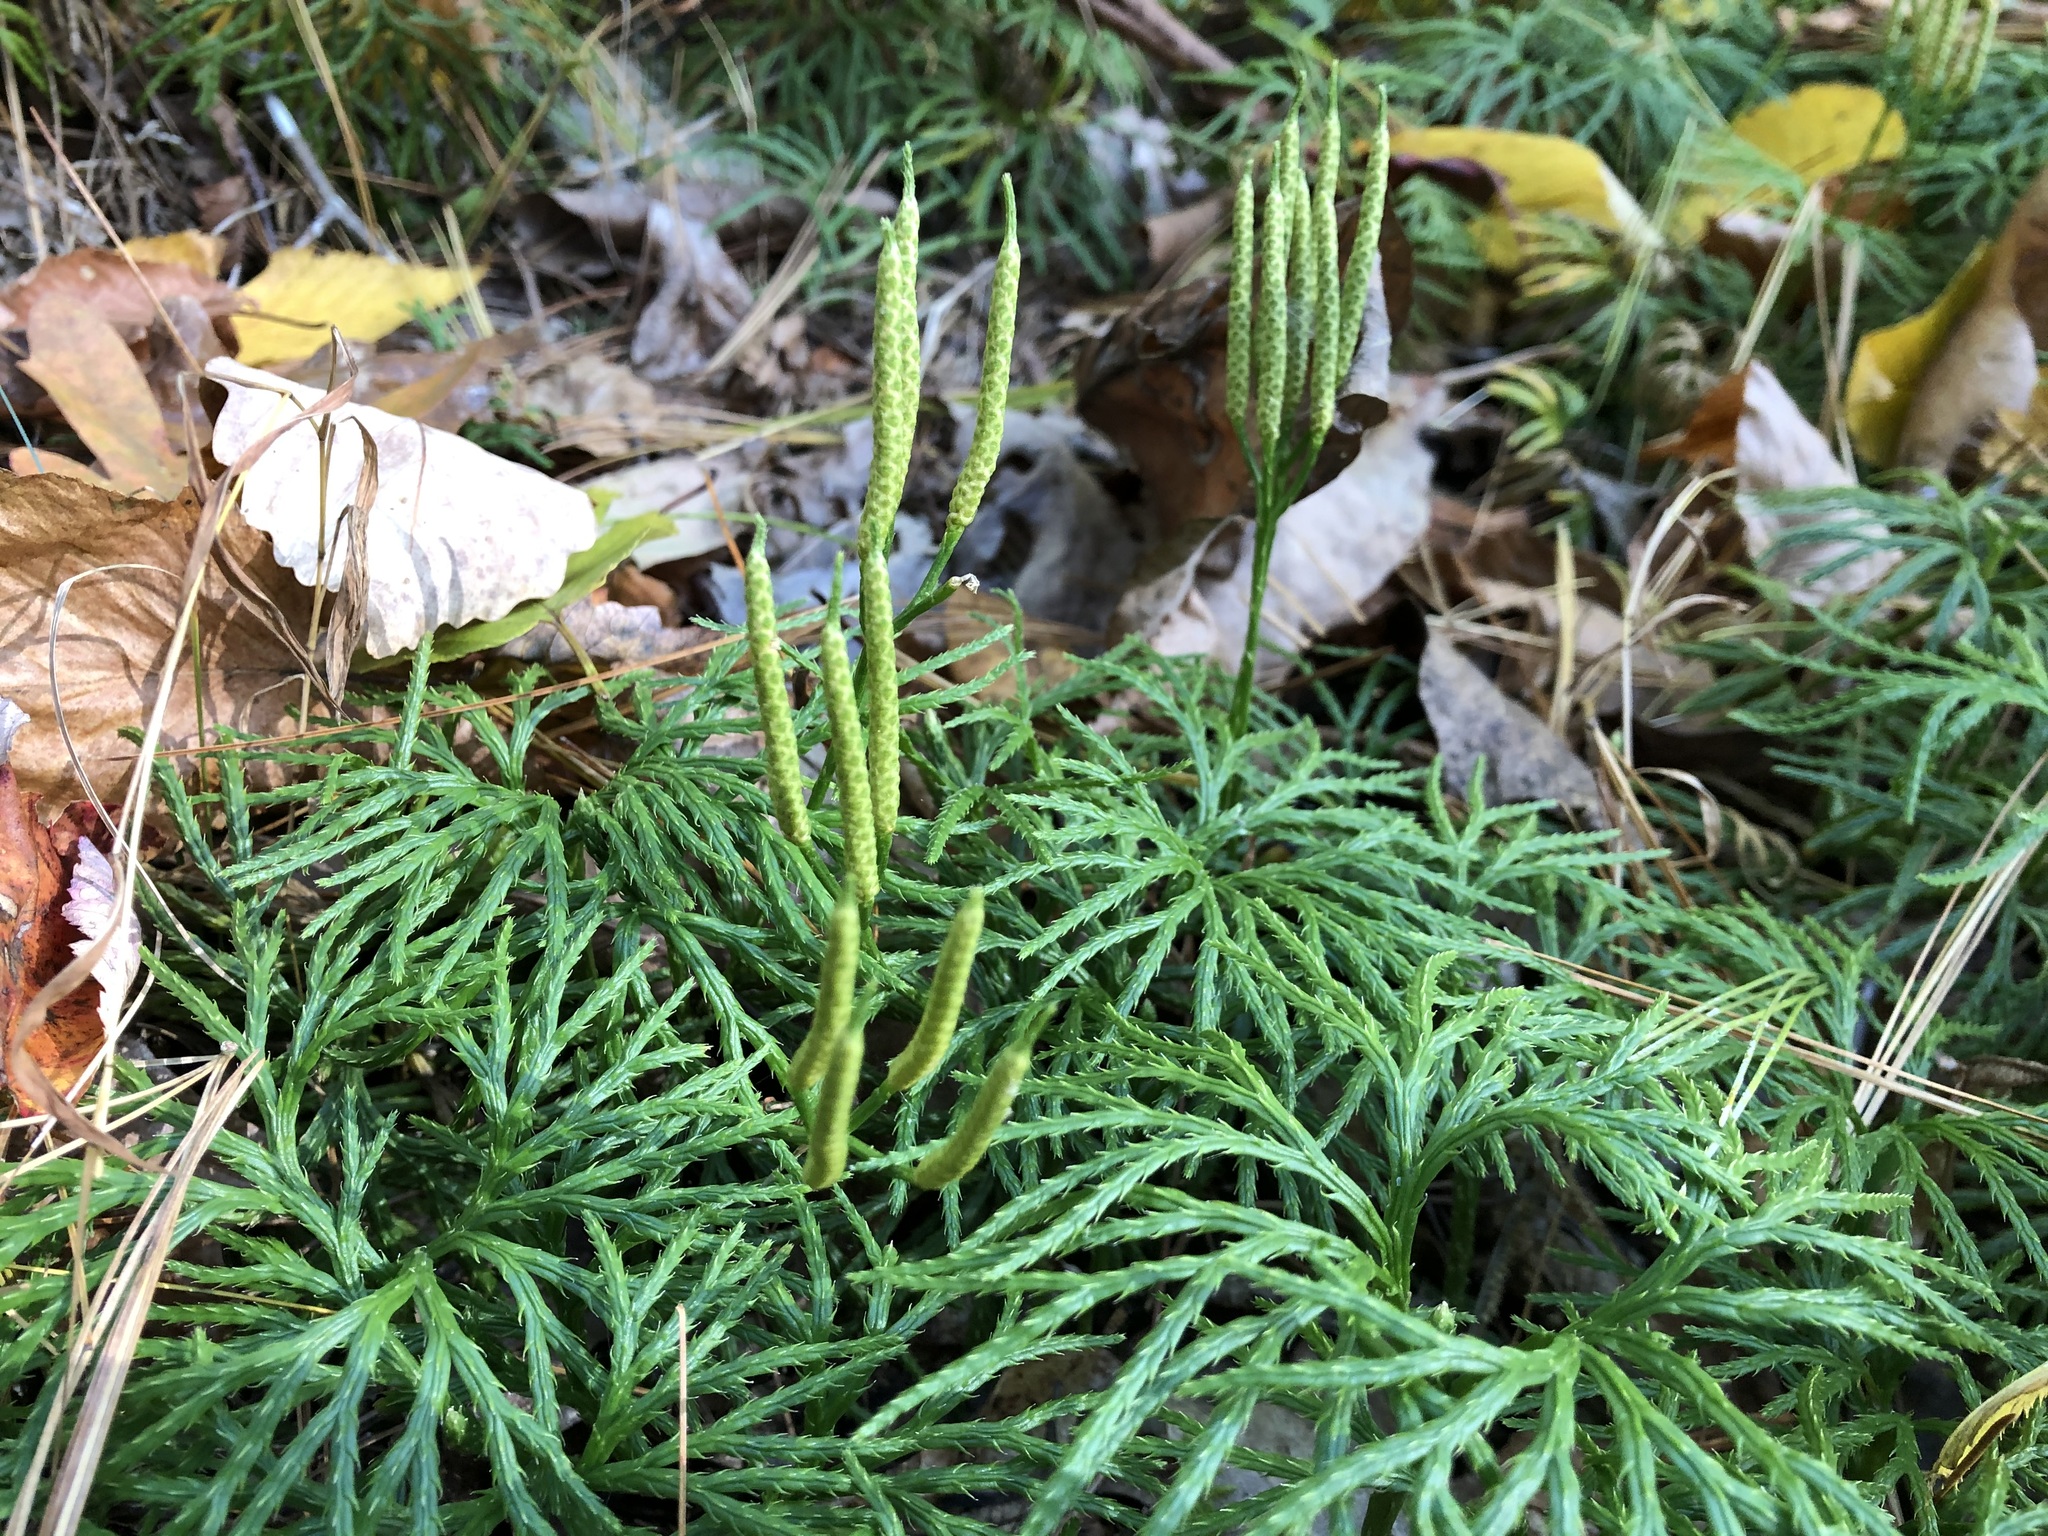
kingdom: Plantae
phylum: Tracheophyta
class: Lycopodiopsida
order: Lycopodiales
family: Lycopodiaceae
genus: Diphasiastrum
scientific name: Diphasiastrum digitatum
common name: Southern running-pine
